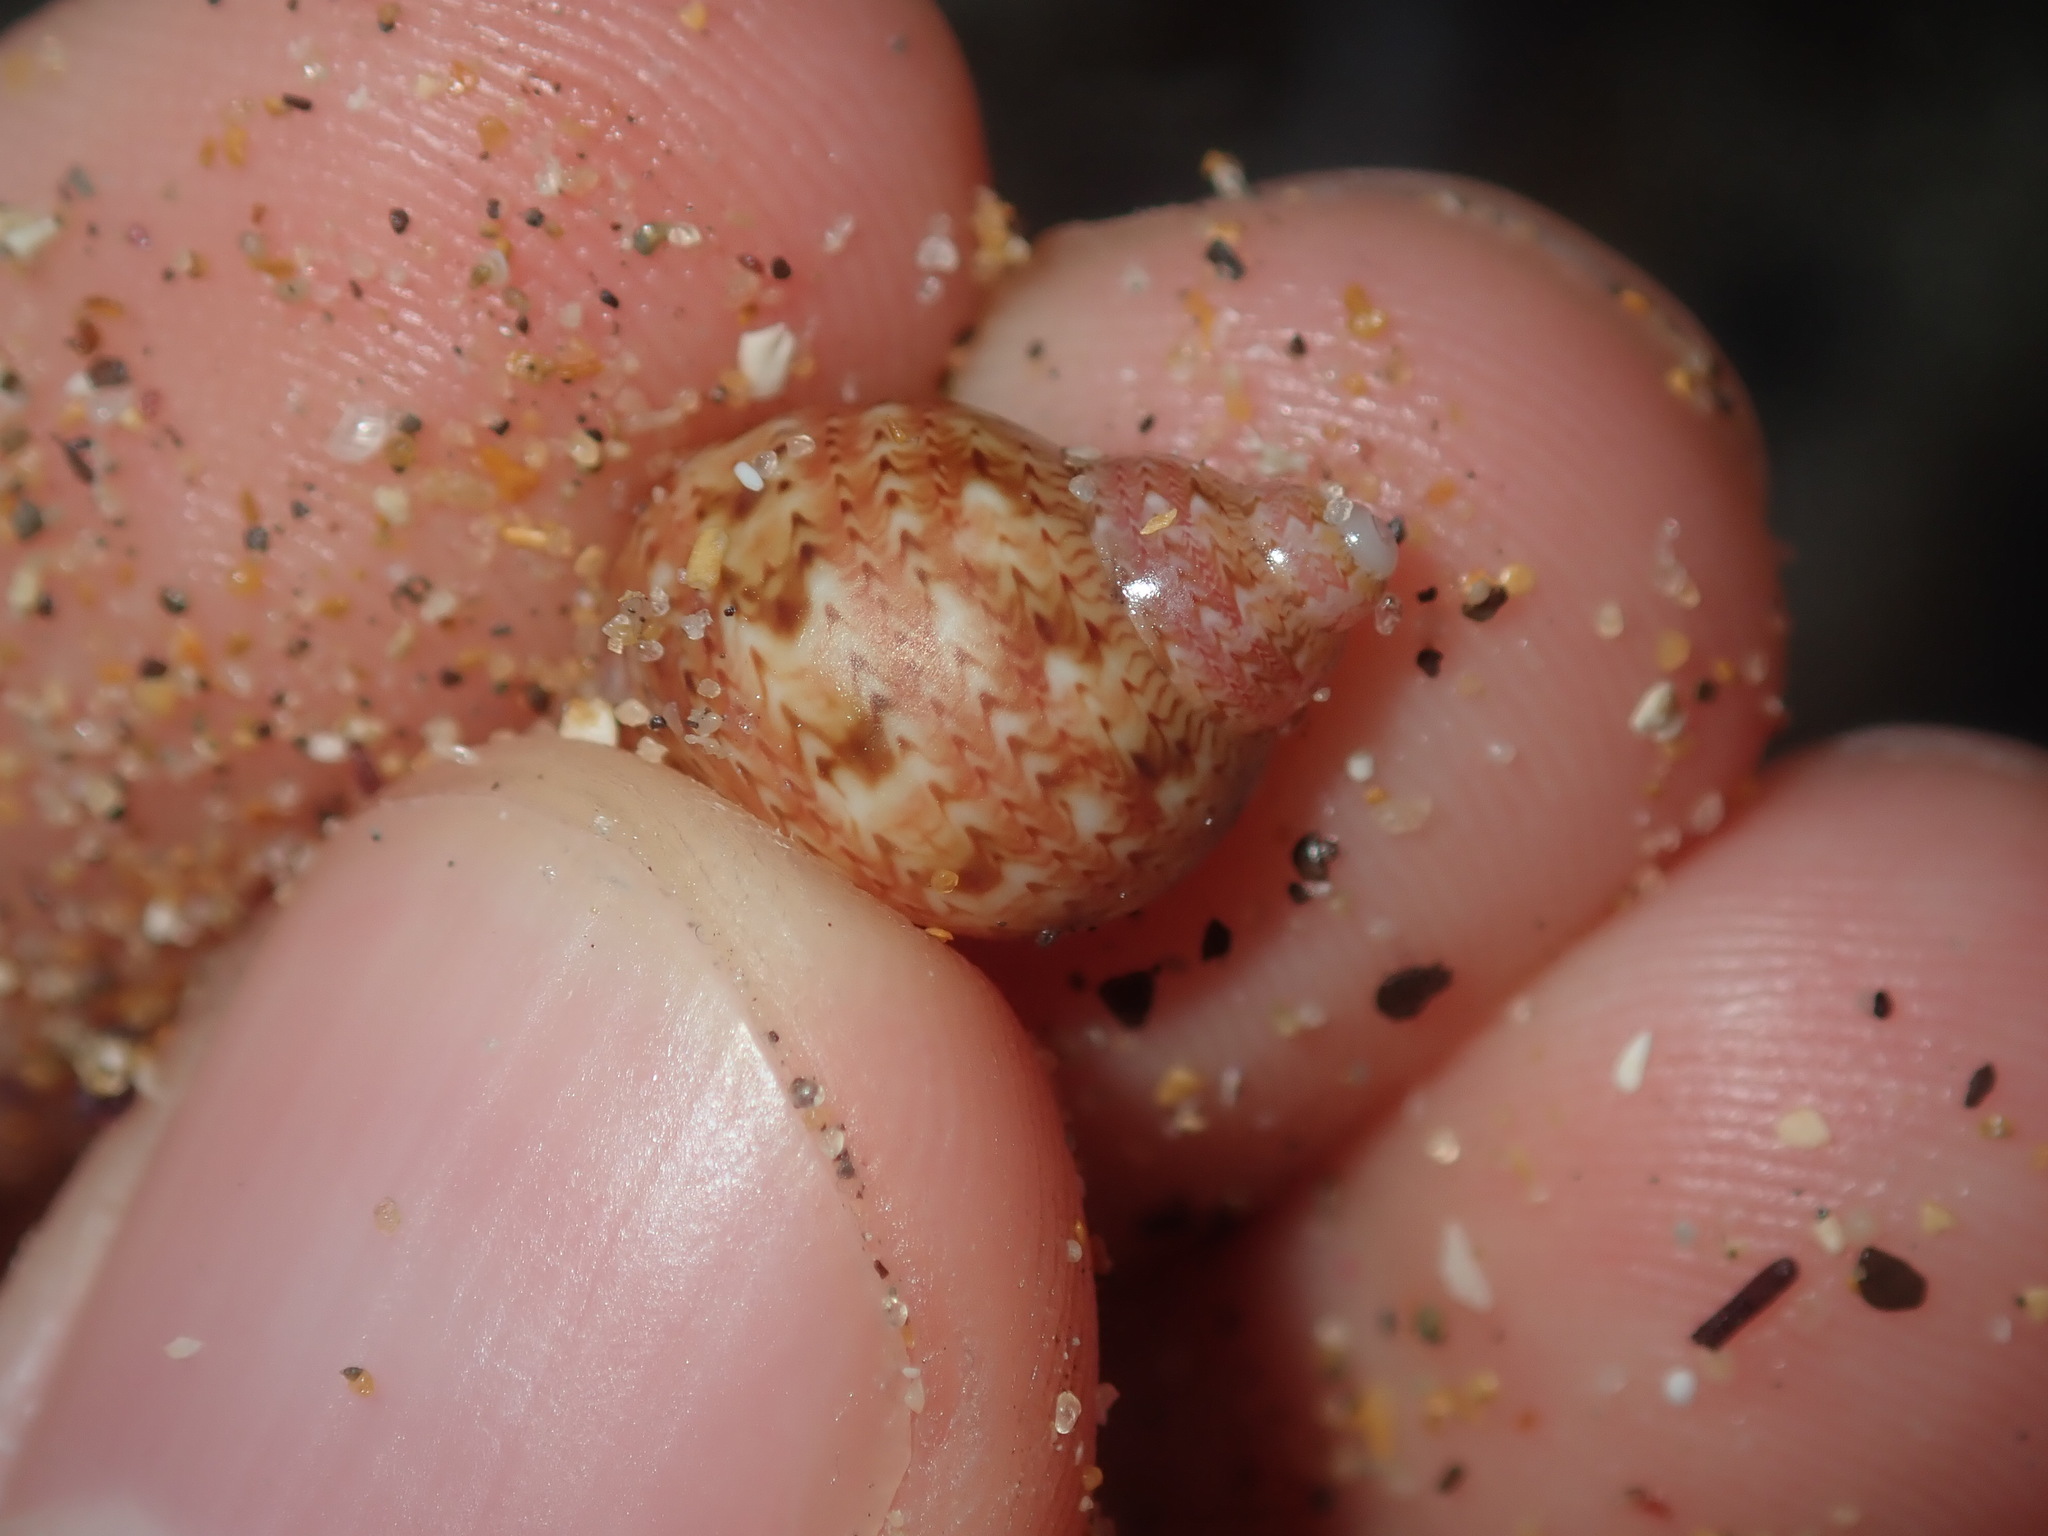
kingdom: Animalia
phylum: Mollusca
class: Gastropoda
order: Trochida
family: Phasianellidae
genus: Phasianella
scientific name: Phasianella ventricosa
